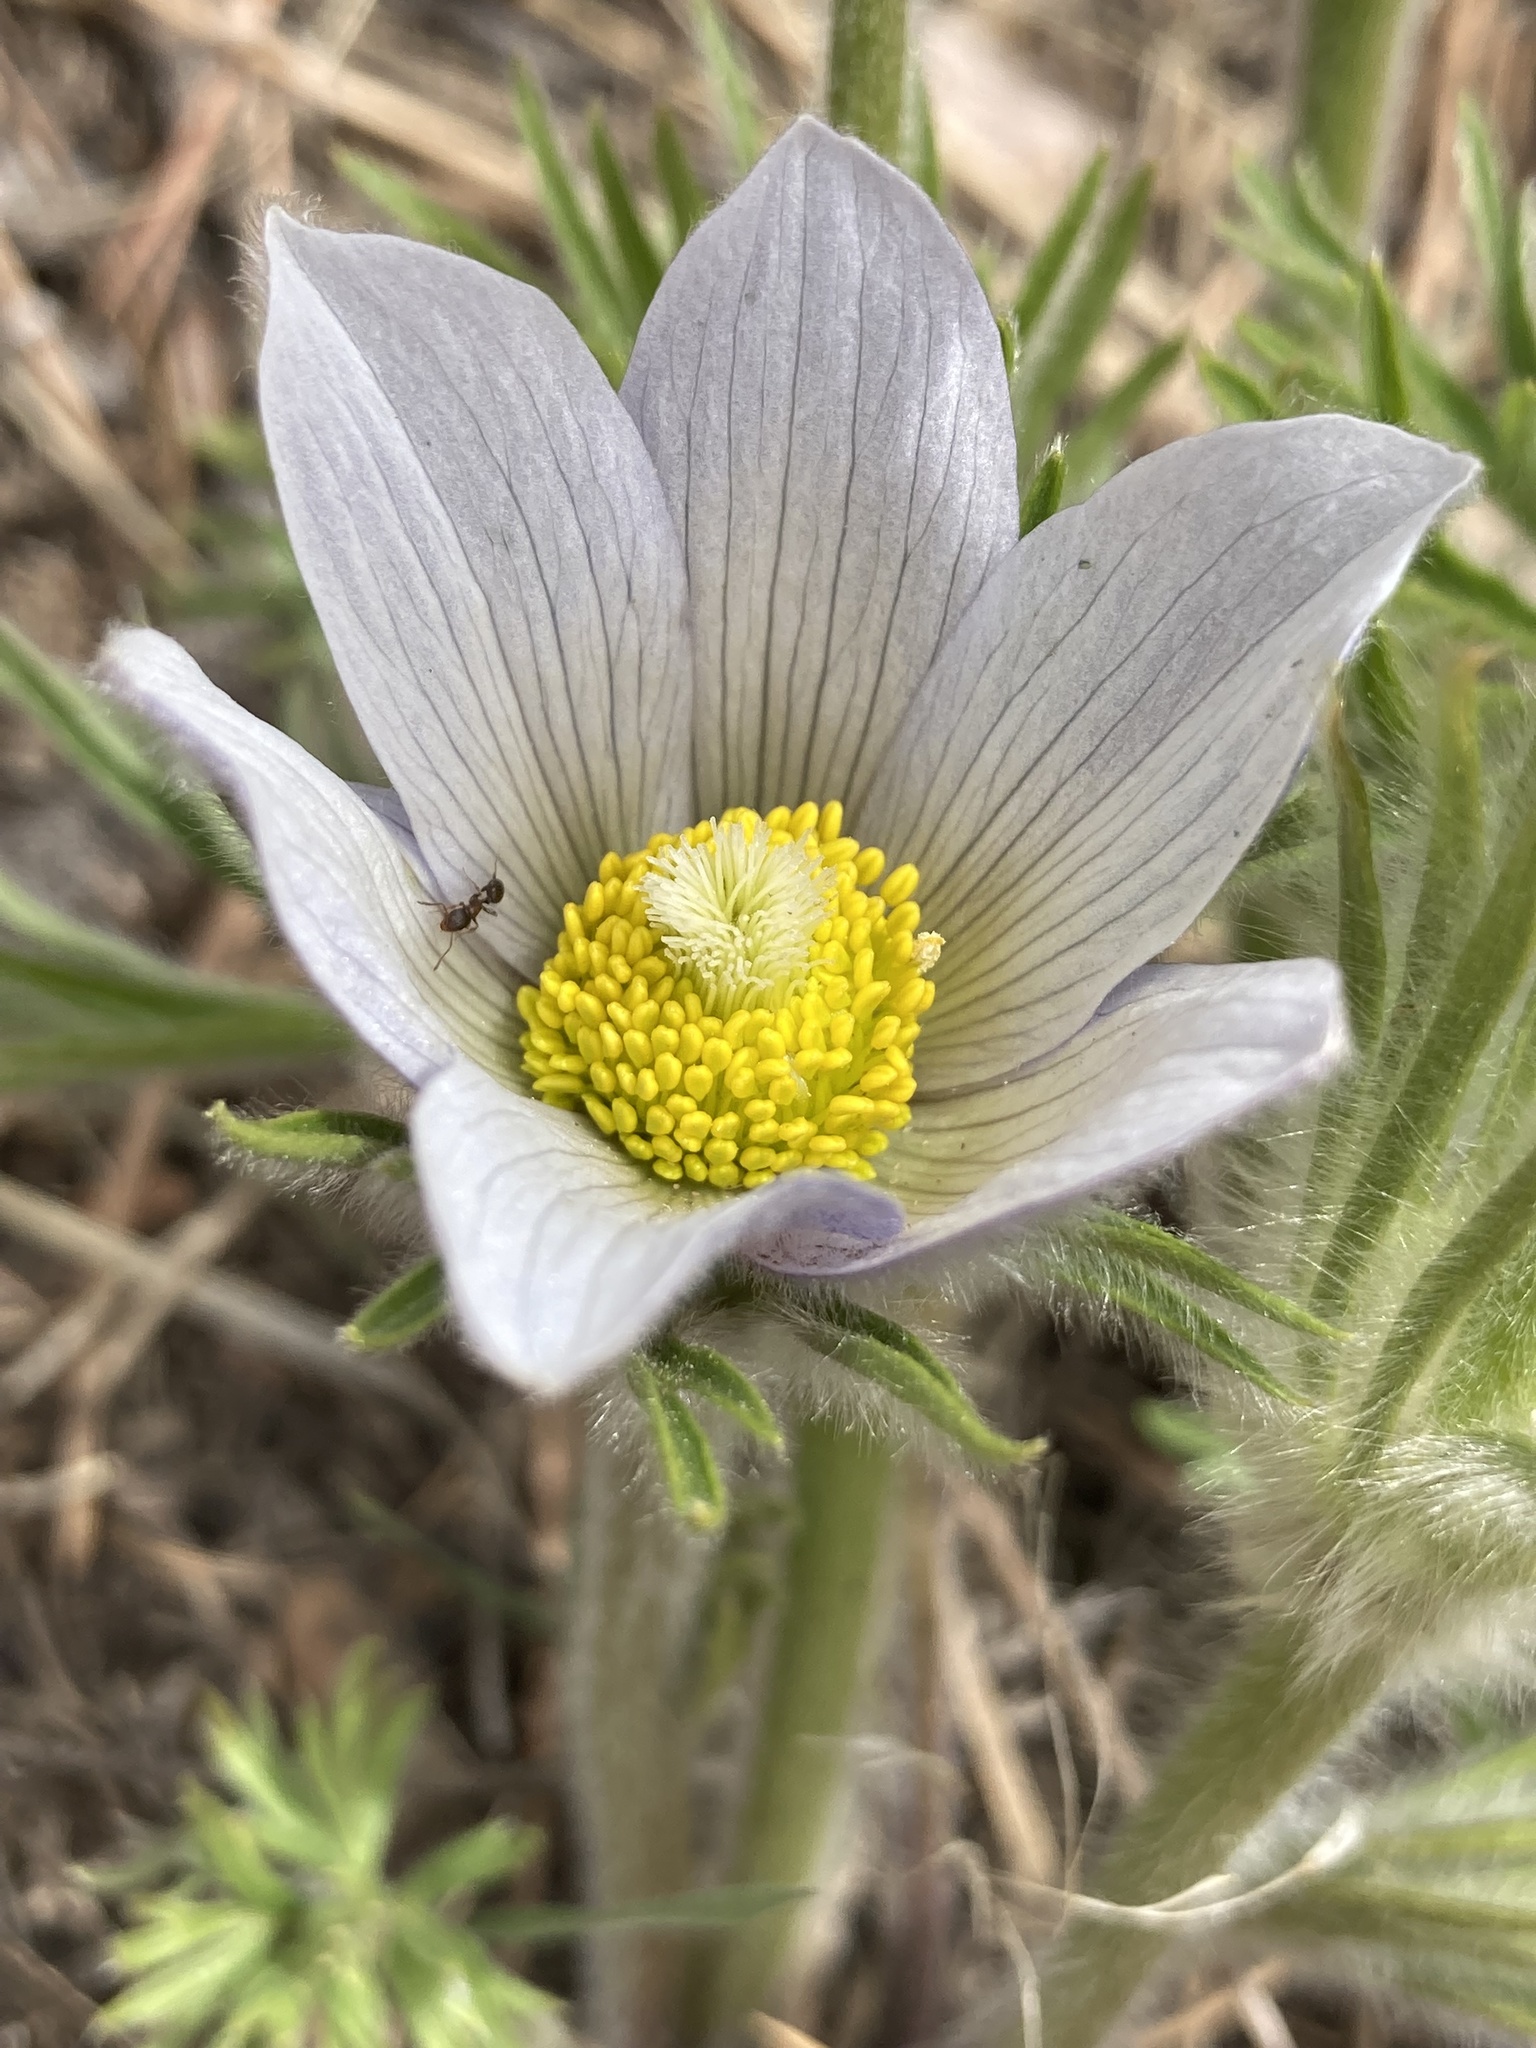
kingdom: Plantae
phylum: Tracheophyta
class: Magnoliopsida
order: Ranunculales
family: Ranunculaceae
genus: Pulsatilla
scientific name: Pulsatilla nuttalliana
